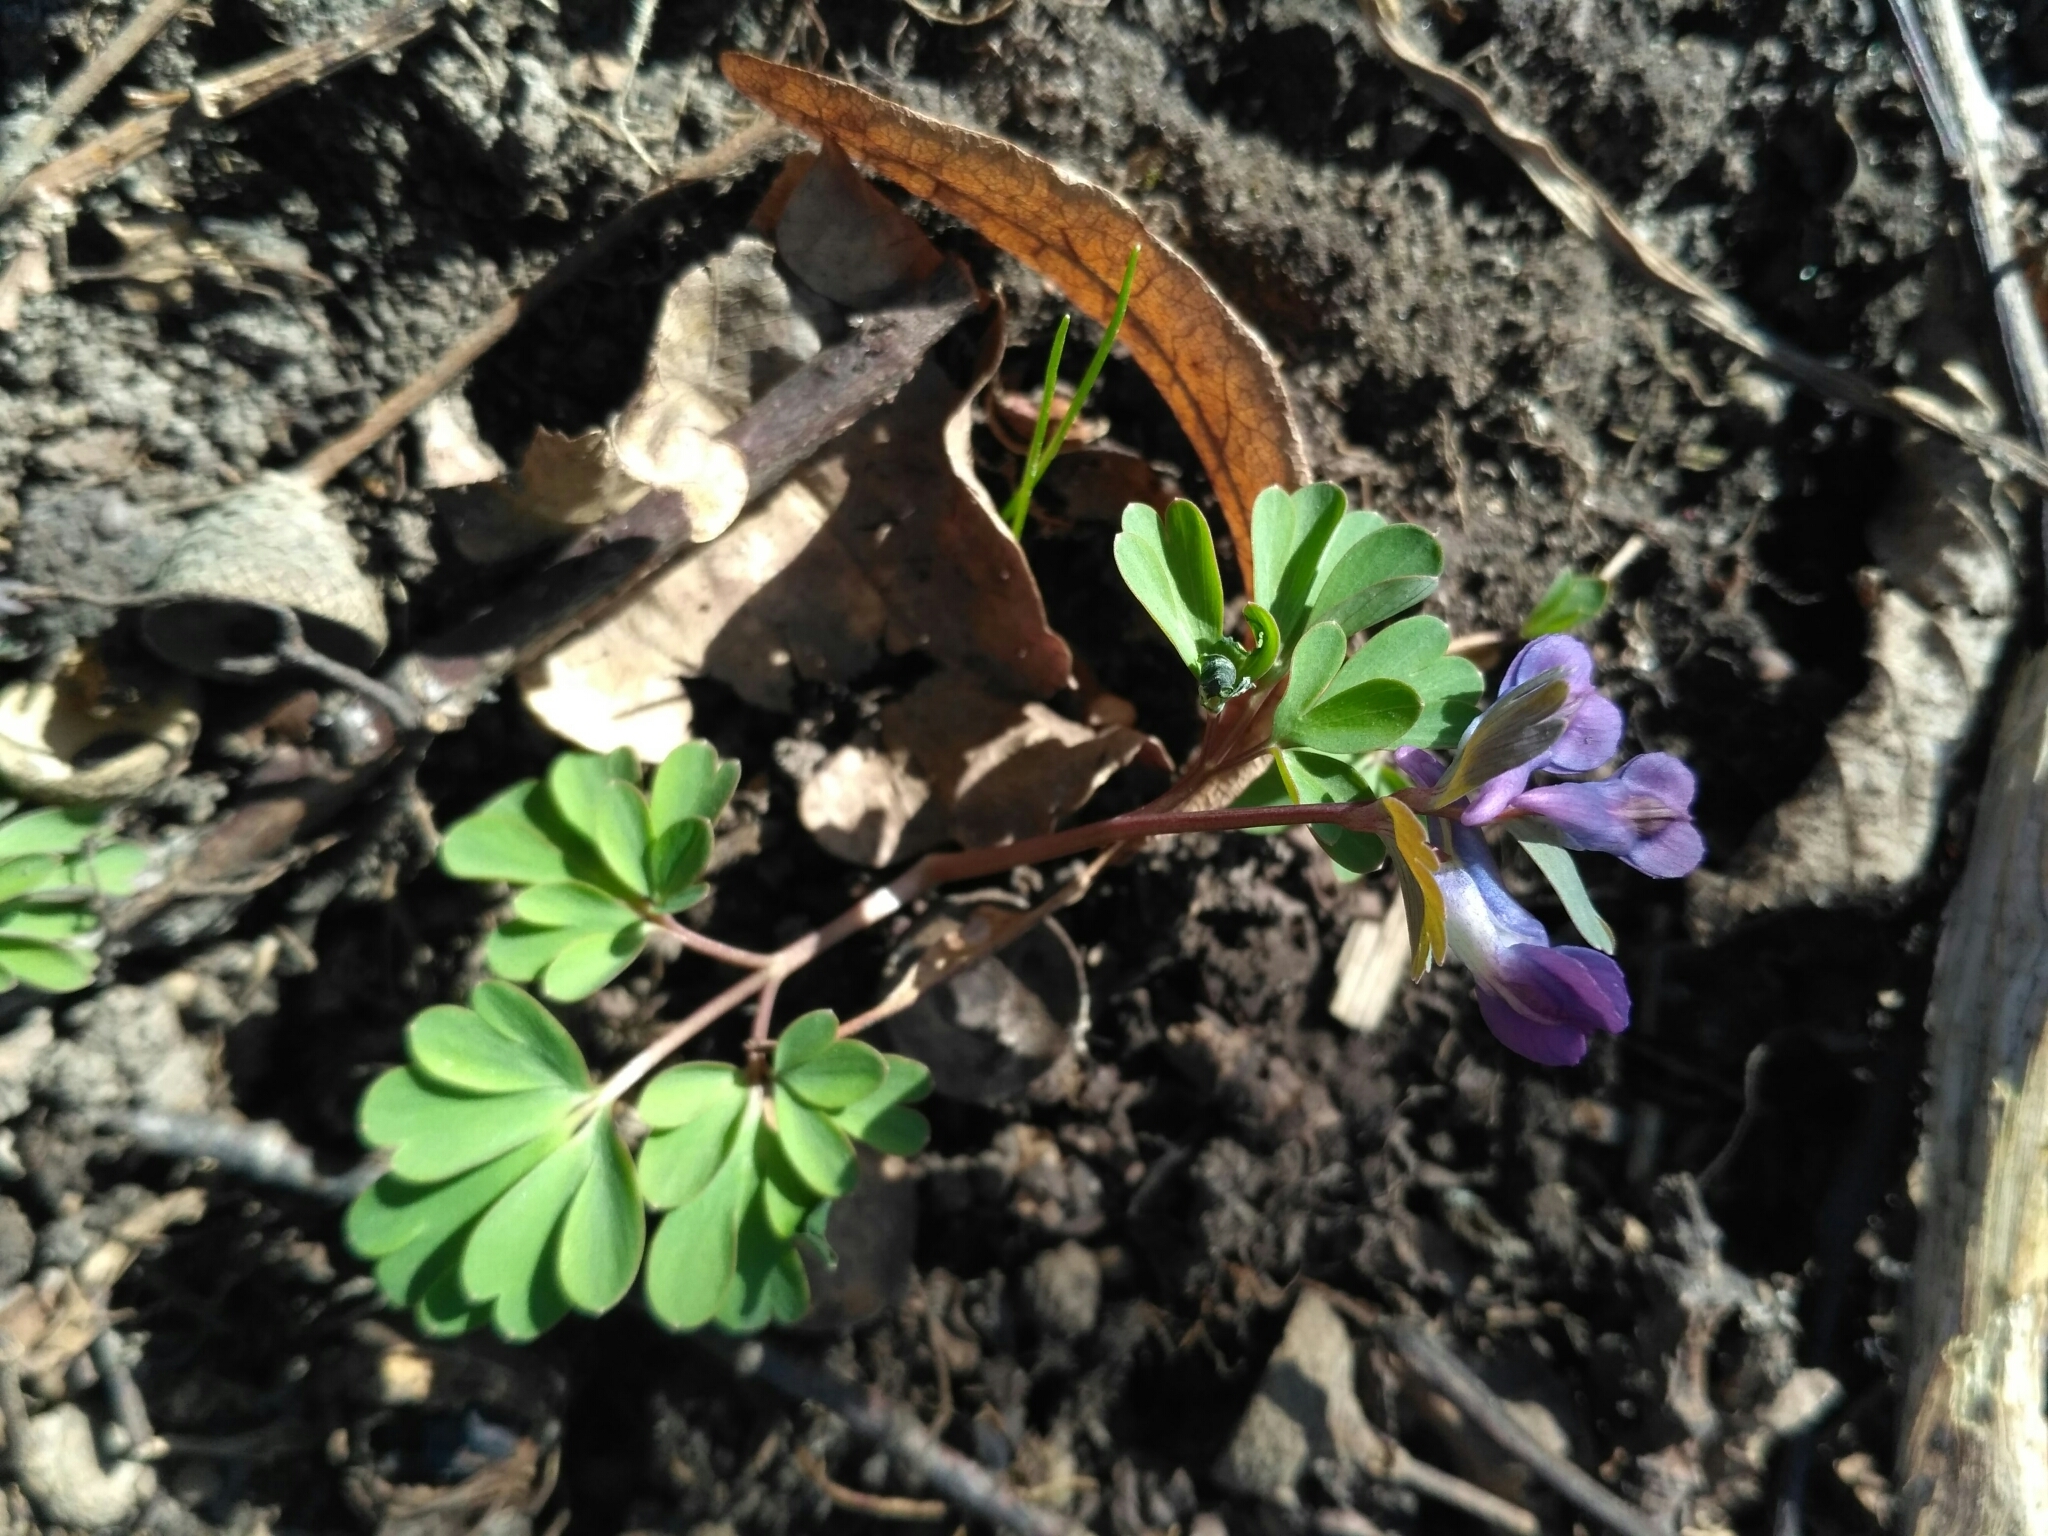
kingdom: Plantae
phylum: Tracheophyta
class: Magnoliopsida
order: Ranunculales
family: Papaveraceae
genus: Corydalis
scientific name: Corydalis solida
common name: Bird-in-a-bush
